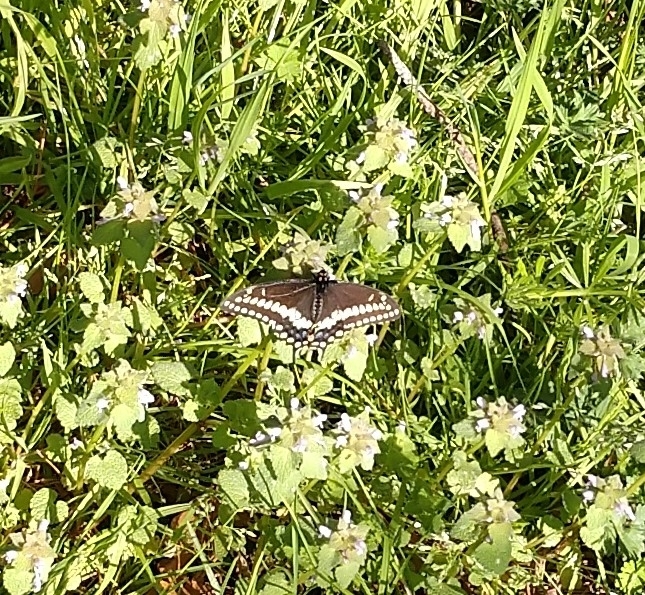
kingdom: Animalia
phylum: Arthropoda
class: Insecta
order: Lepidoptera
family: Papilionidae
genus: Papilio
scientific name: Papilio polyxenes
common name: Black swallowtail
